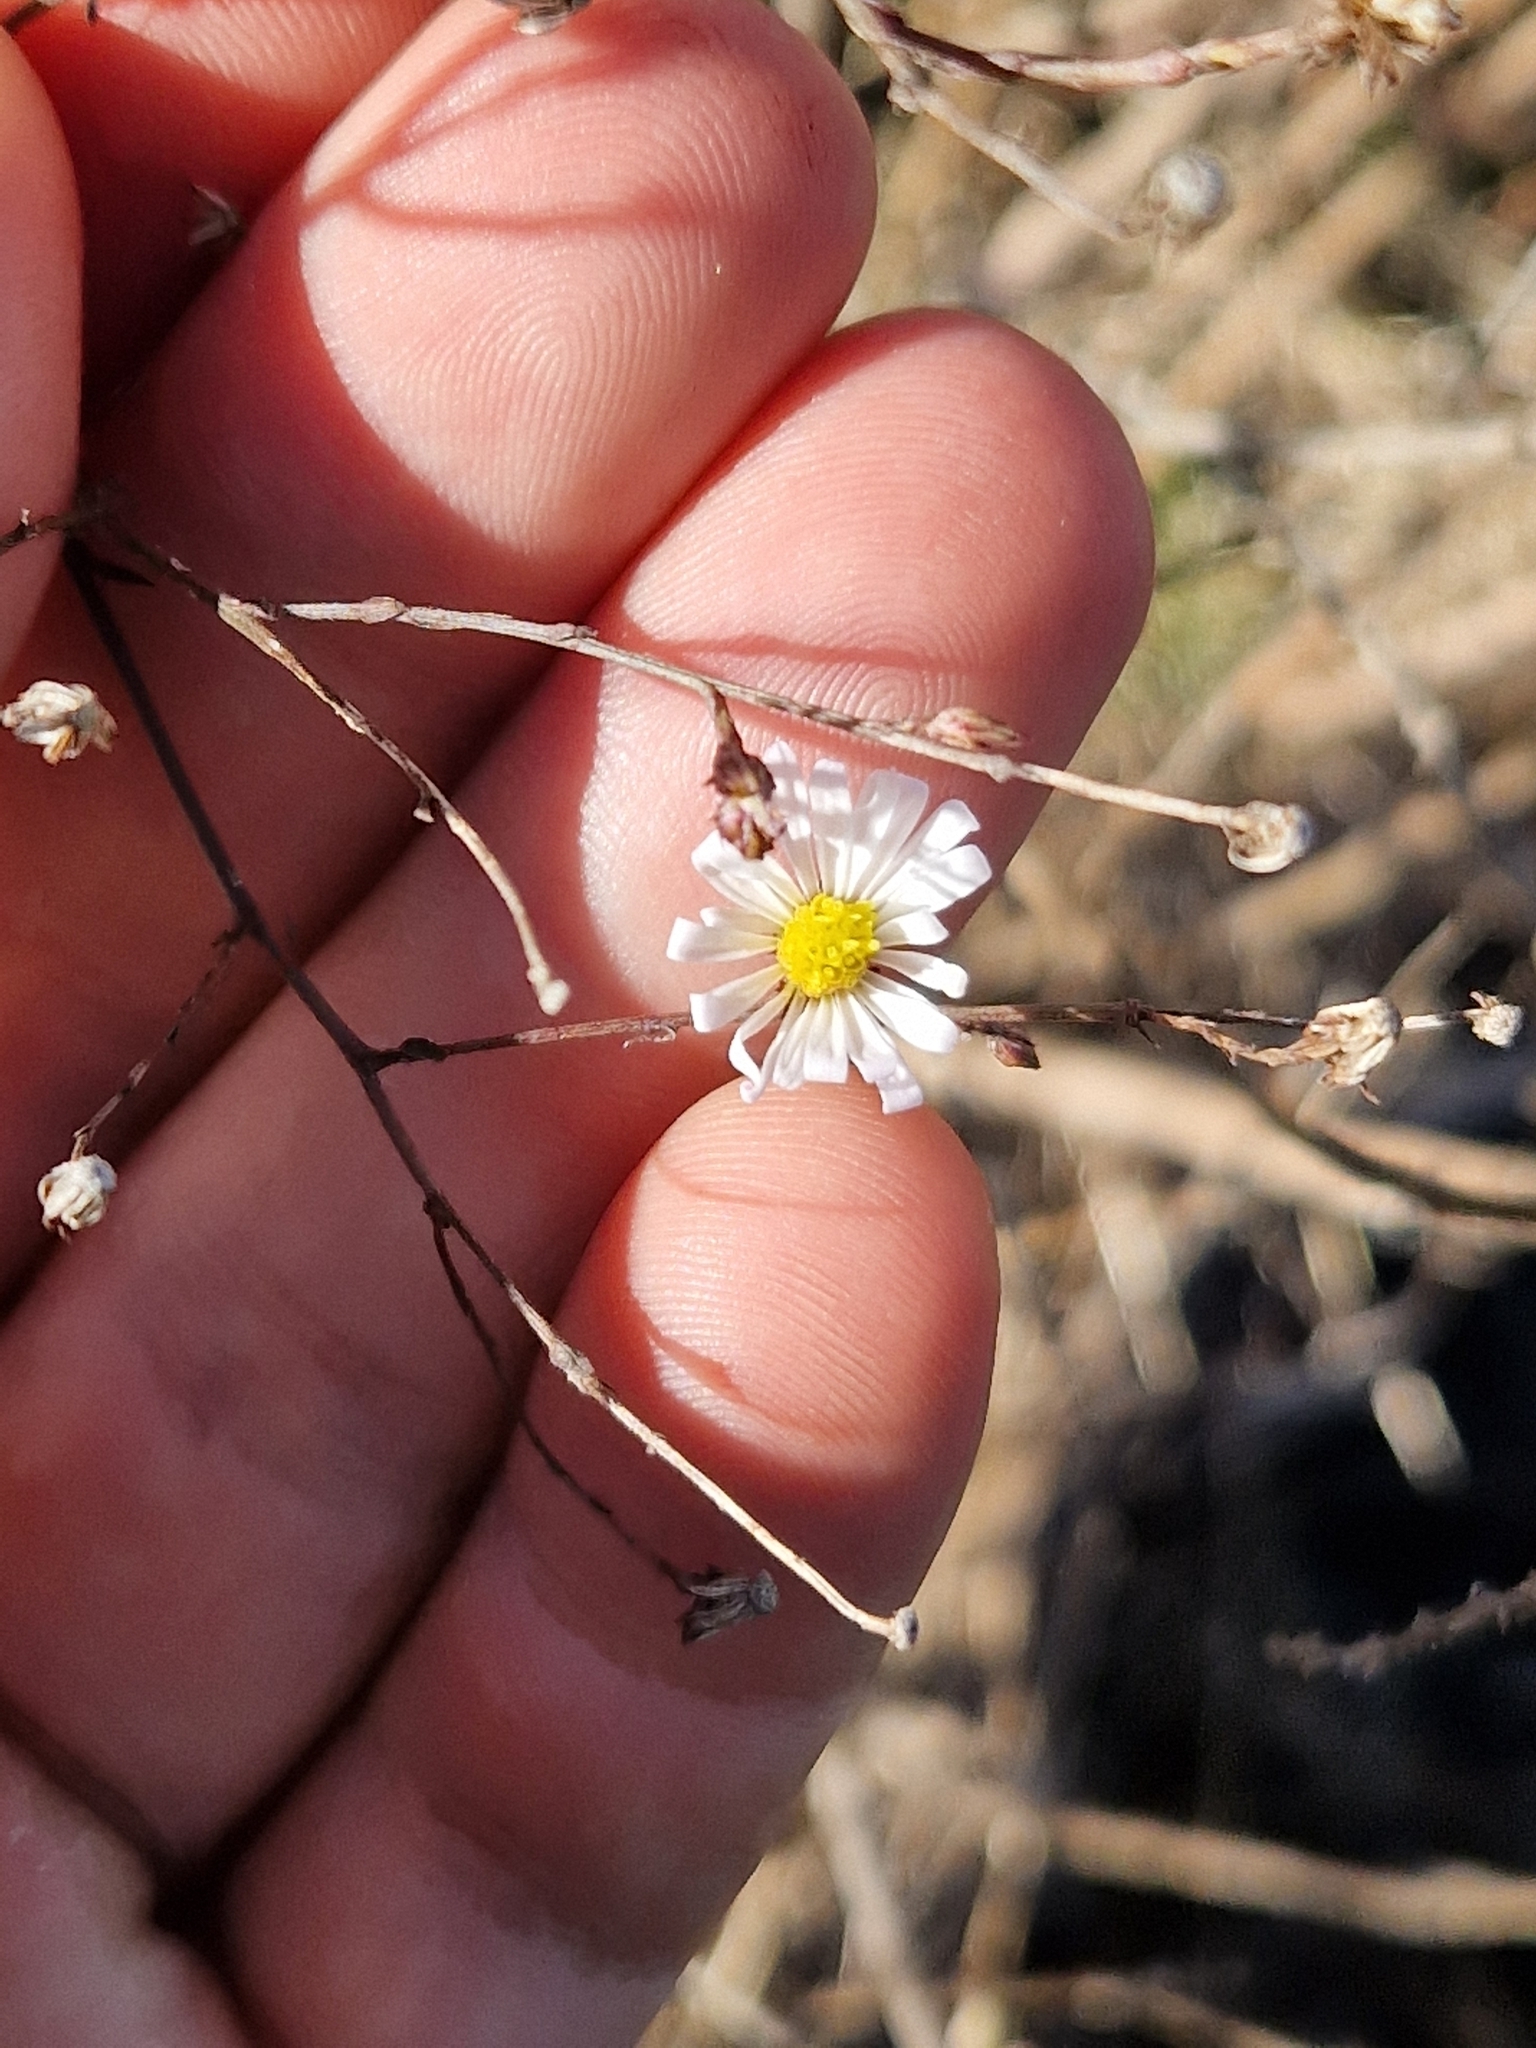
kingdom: Plantae
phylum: Tracheophyta
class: Magnoliopsida
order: Asterales
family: Asteraceae
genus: Symphyotrichum
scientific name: Symphyotrichum divaricatum
